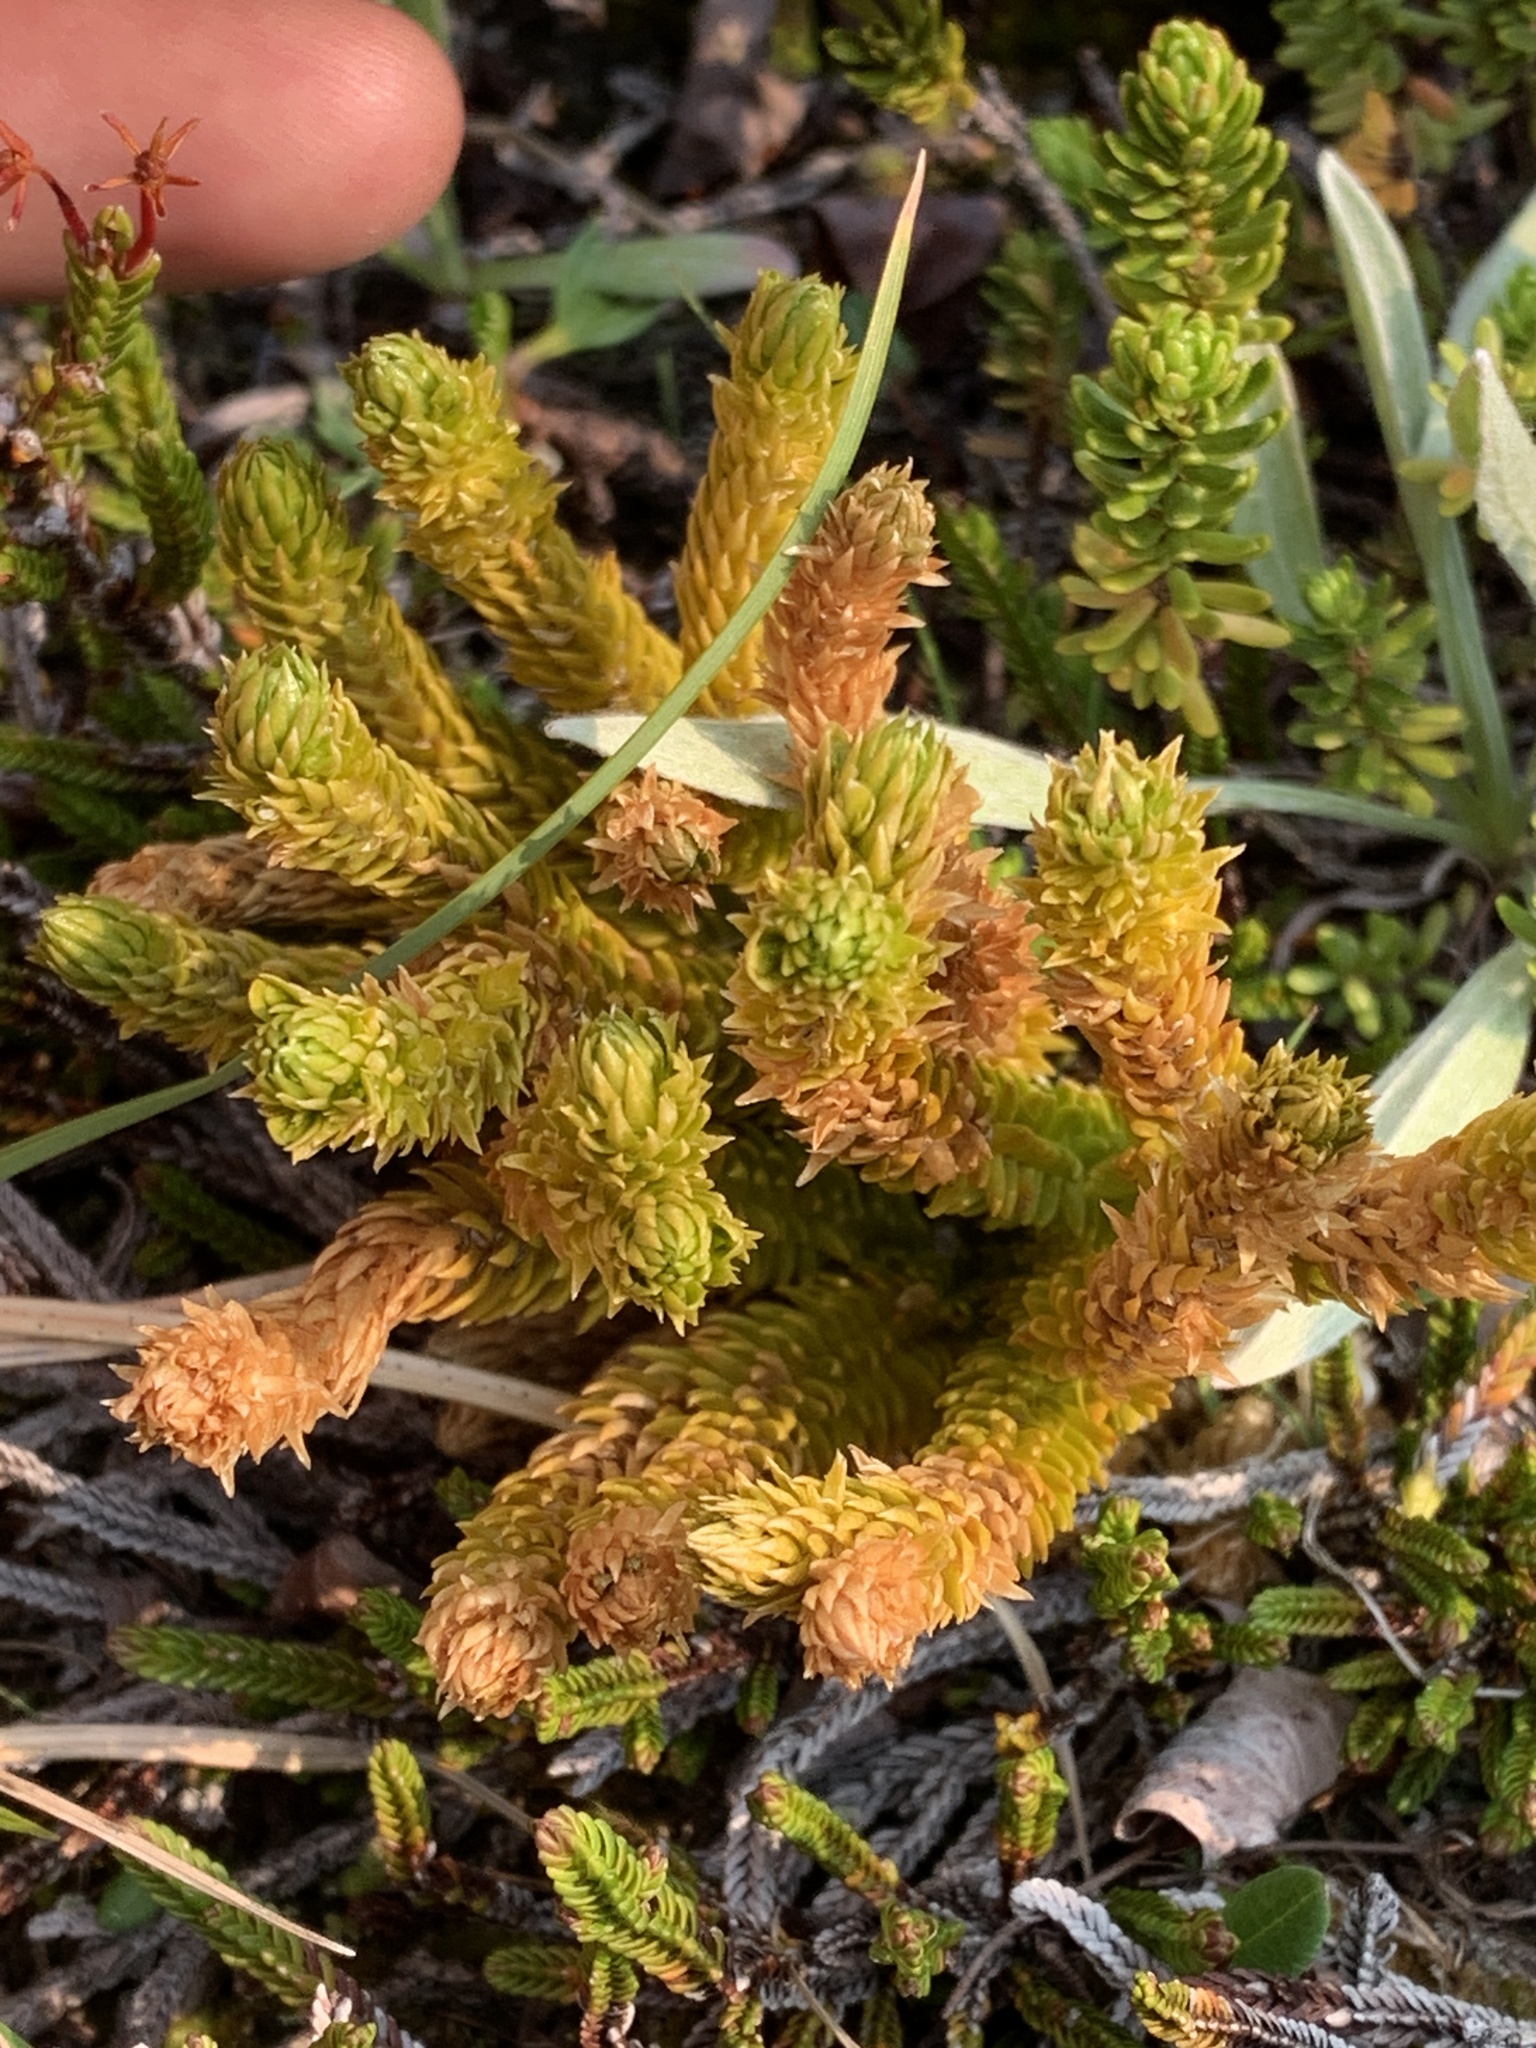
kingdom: Plantae
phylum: Tracheophyta
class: Lycopodiopsida
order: Lycopodiales
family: Lycopodiaceae
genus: Huperzia
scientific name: Huperzia continentalis
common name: Continental firmoss
